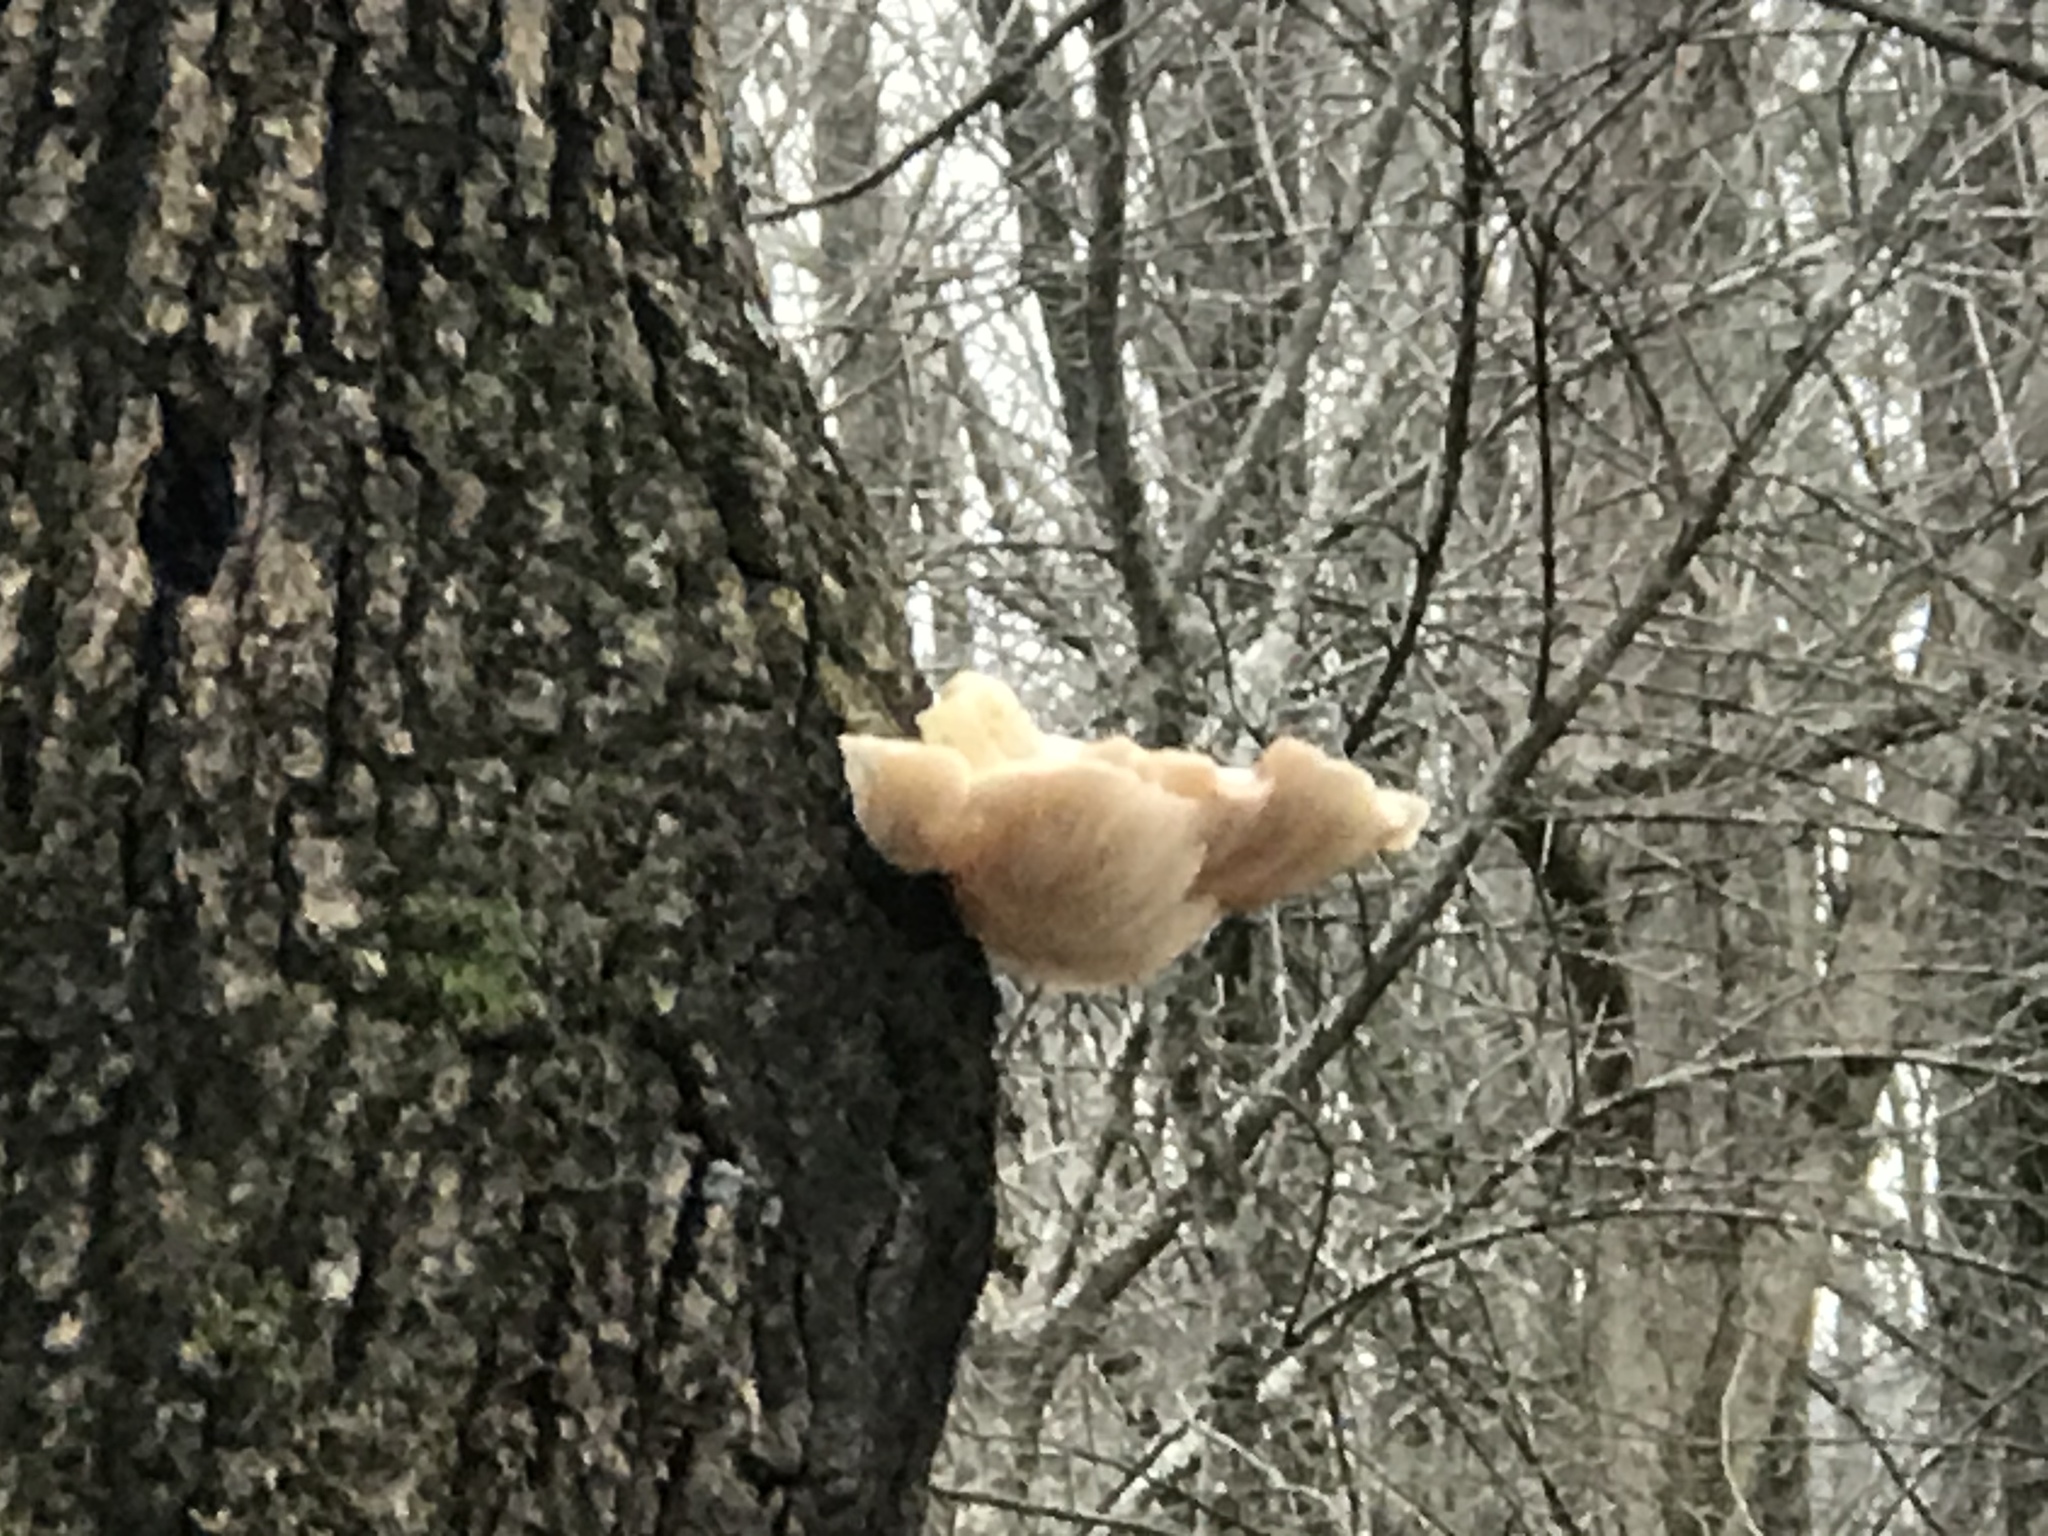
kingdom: Fungi
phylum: Basidiomycota
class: Agaricomycetes
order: Agaricales
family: Pleurotaceae
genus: Pleurotus
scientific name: Pleurotus ostreatus
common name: Oyster mushroom
